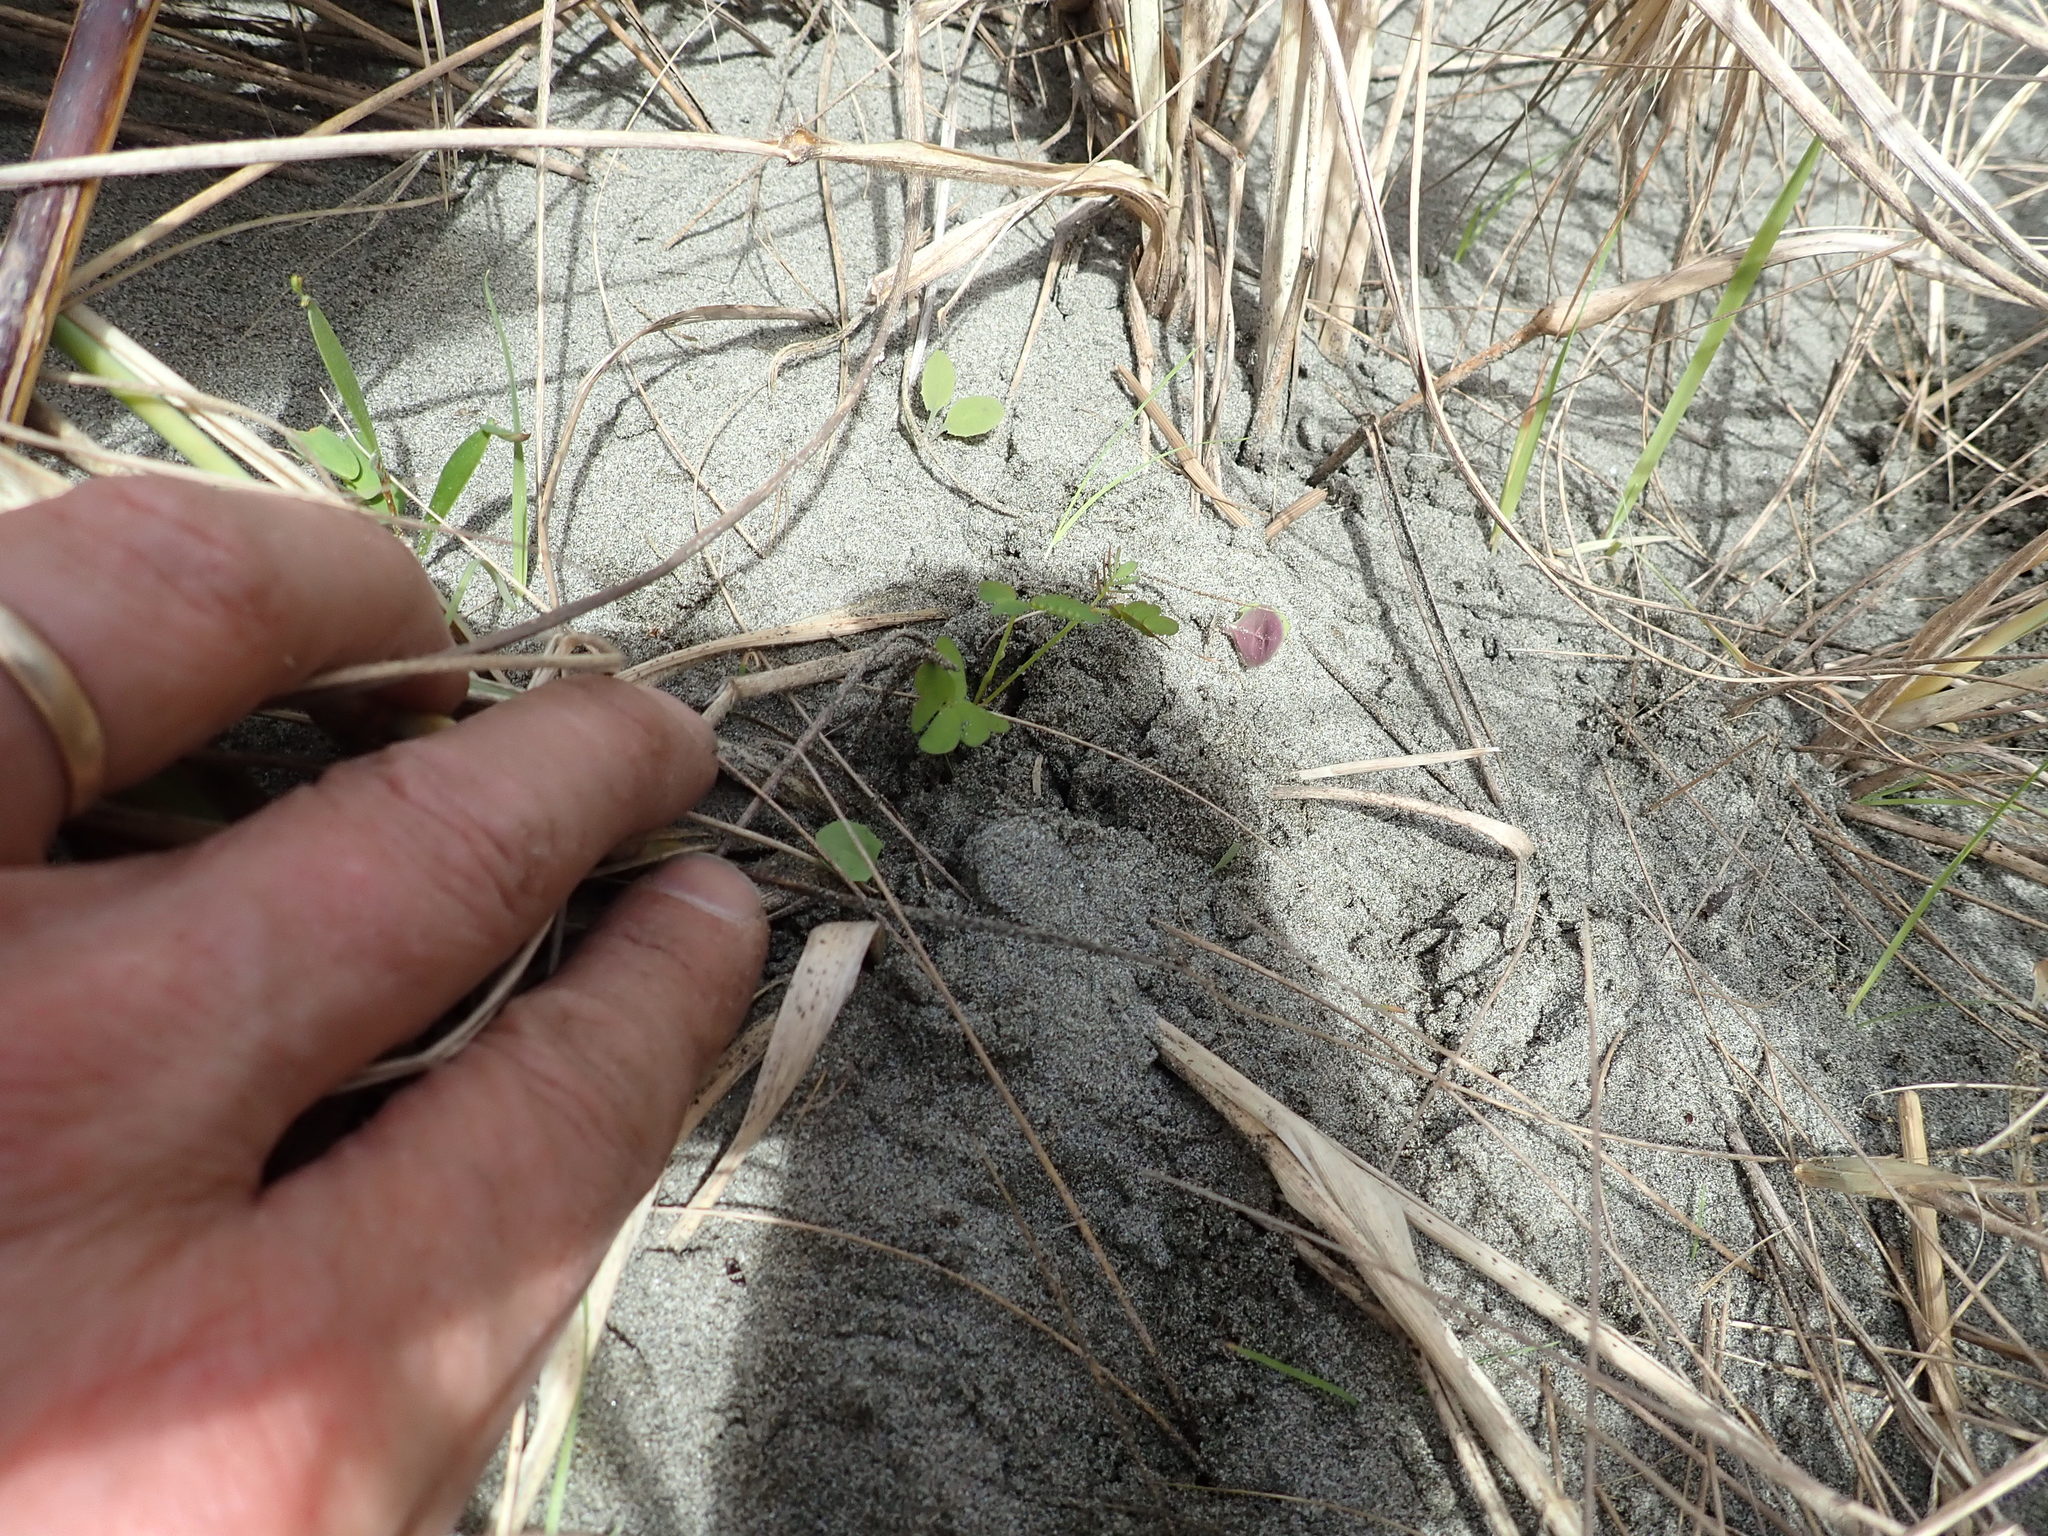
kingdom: Plantae
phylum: Tracheophyta
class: Magnoliopsida
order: Fabales
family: Fabaceae
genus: Acacia
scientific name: Acacia longifolia
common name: Sydney golden wattle
